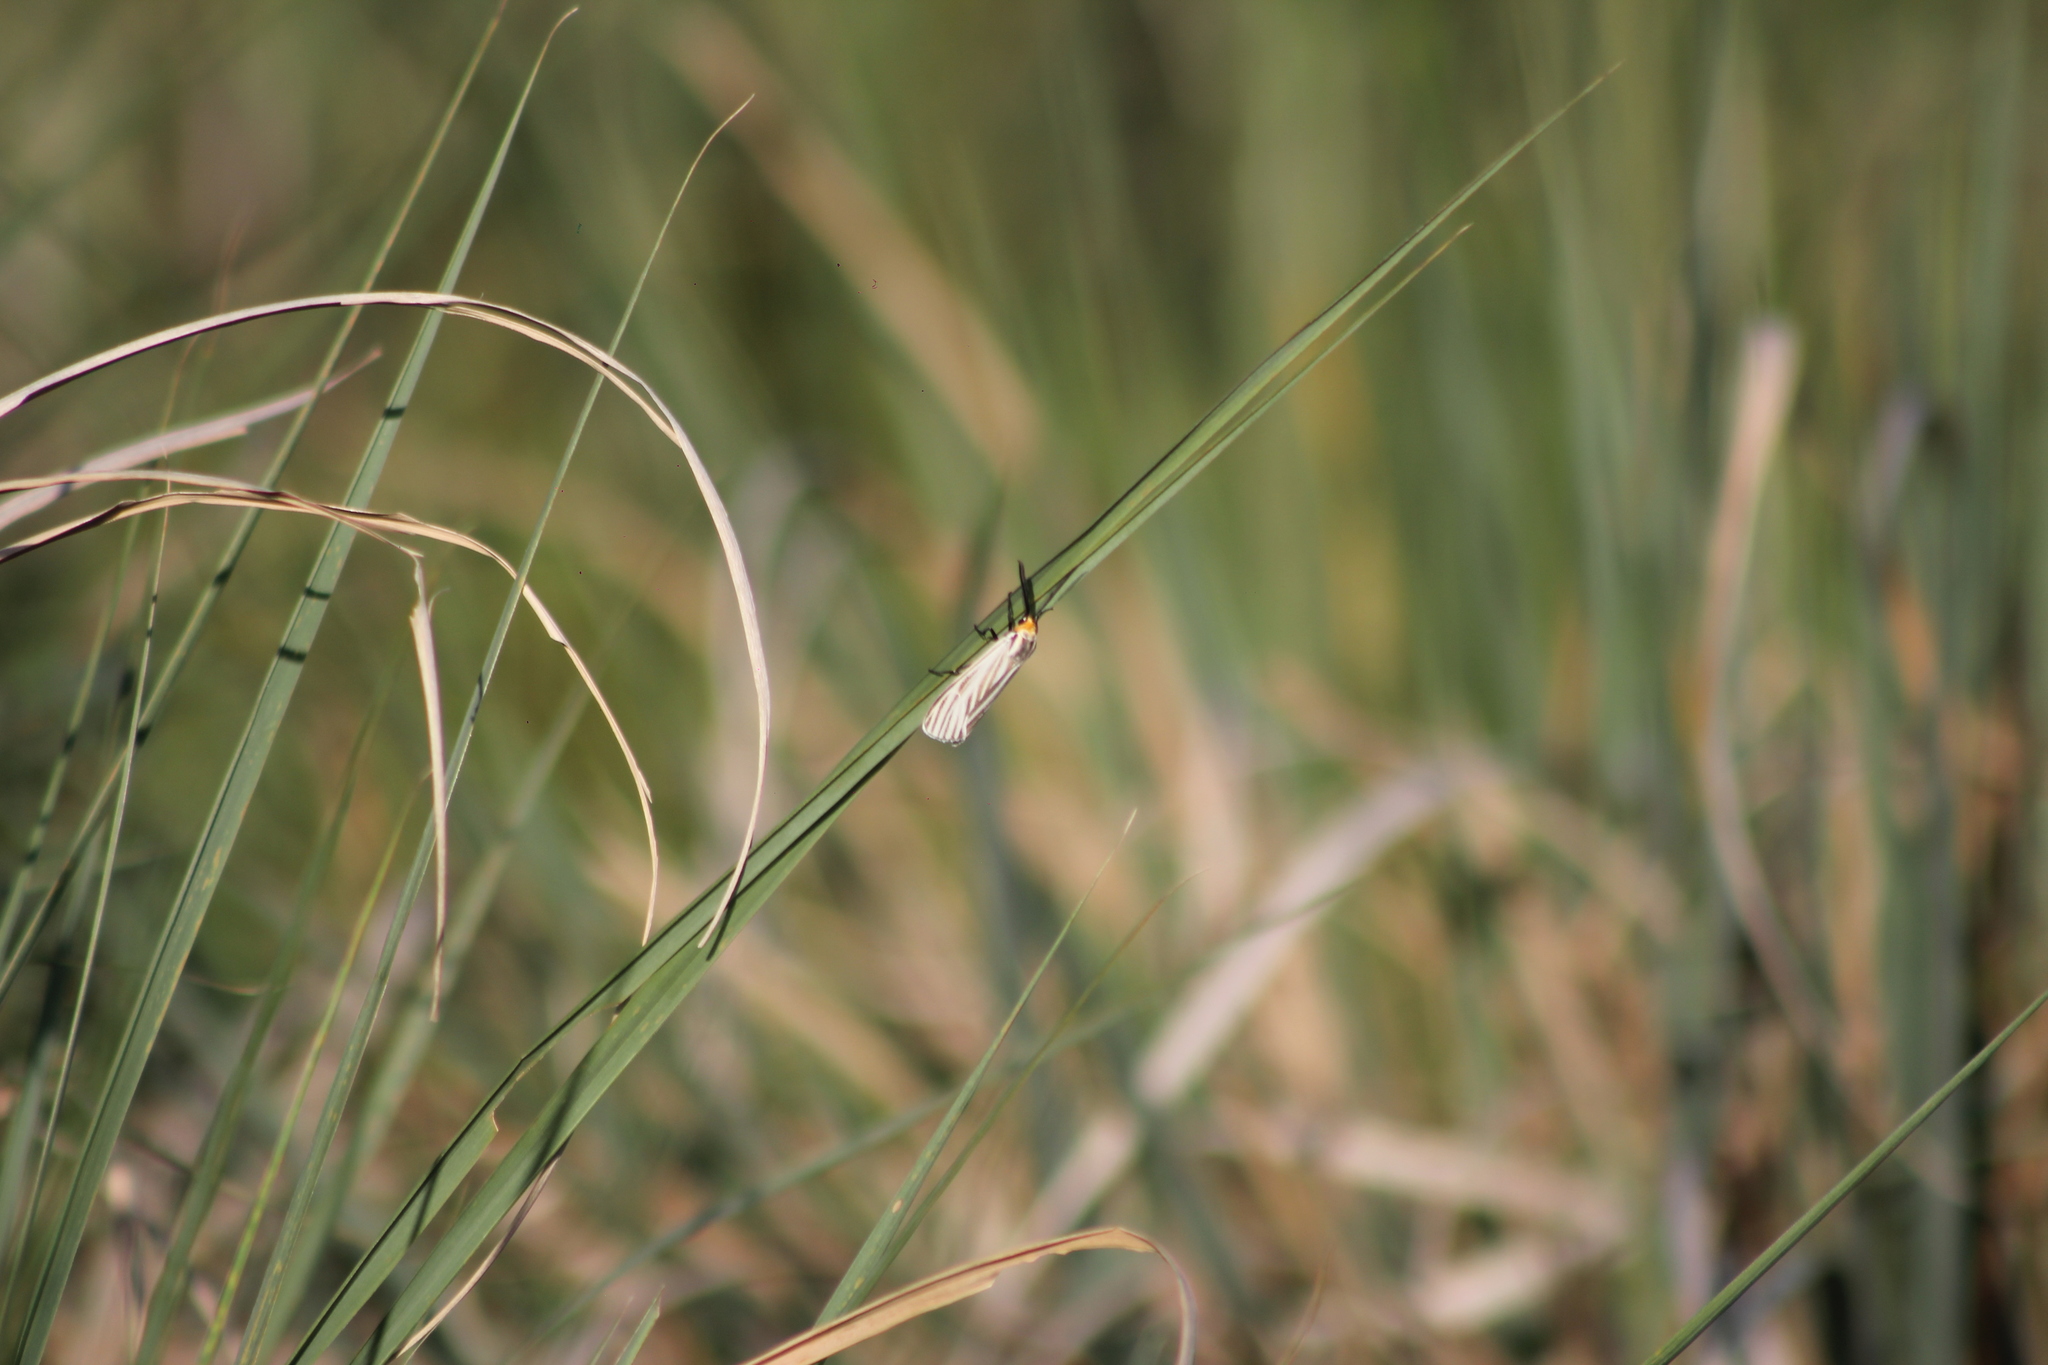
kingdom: Animalia
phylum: Arthropoda
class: Insecta
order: Lepidoptera
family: Erebidae
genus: Ctenucha
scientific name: Ctenucha vittigerum
